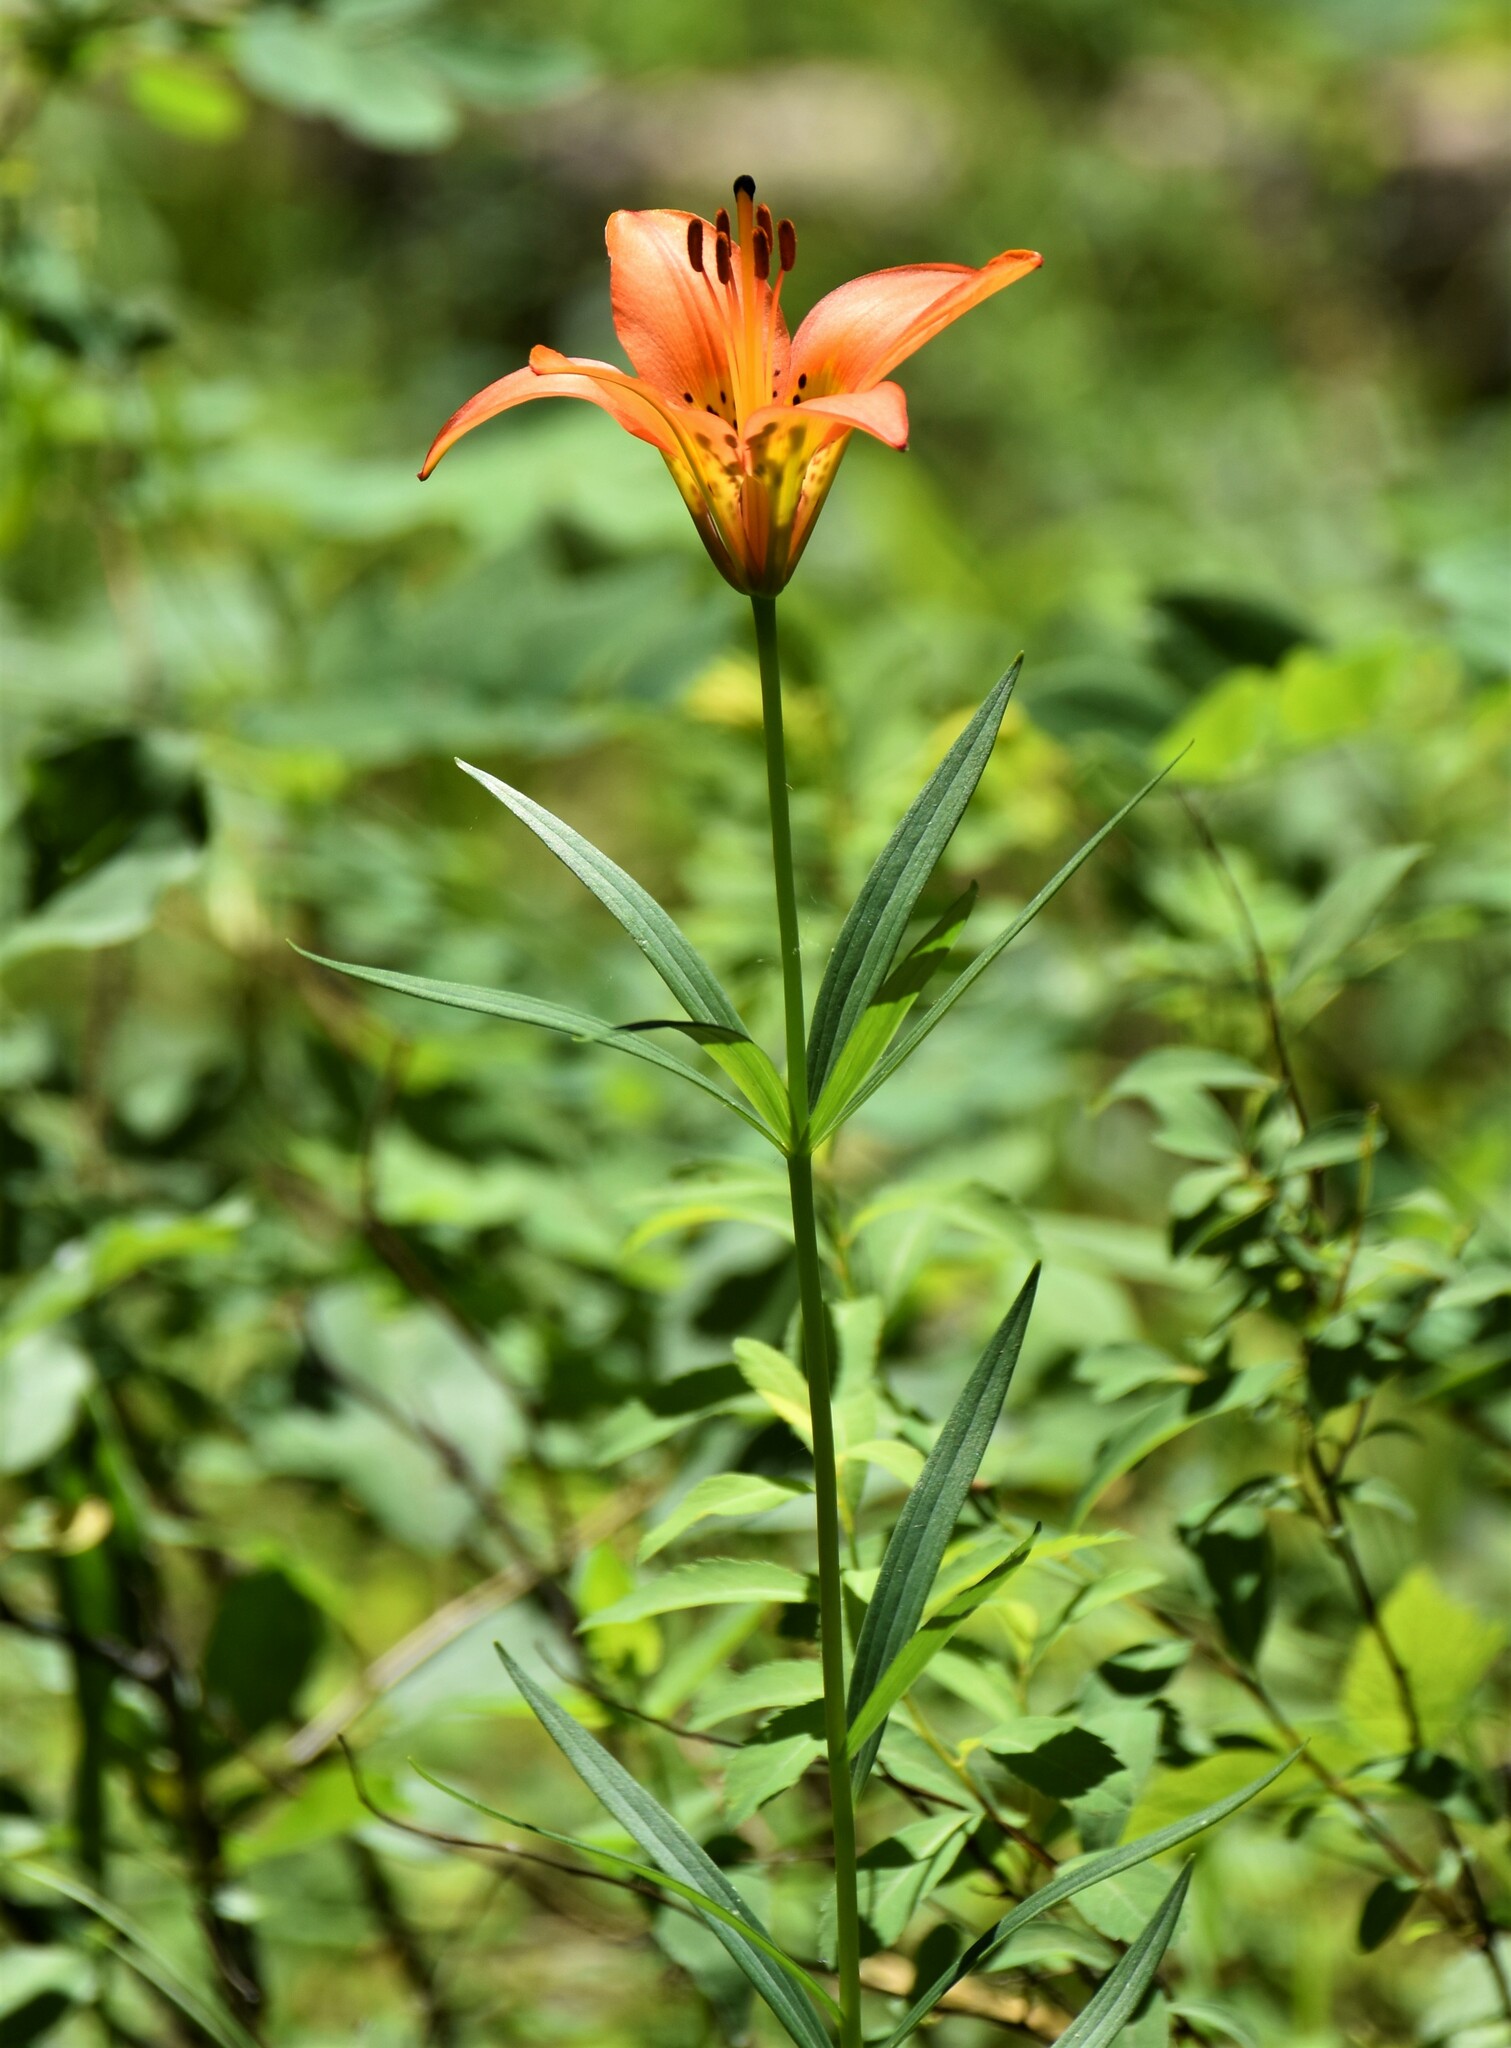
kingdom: Plantae
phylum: Tracheophyta
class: Liliopsida
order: Liliales
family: Liliaceae
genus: Lilium
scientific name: Lilium philadelphicum
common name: Red lily
